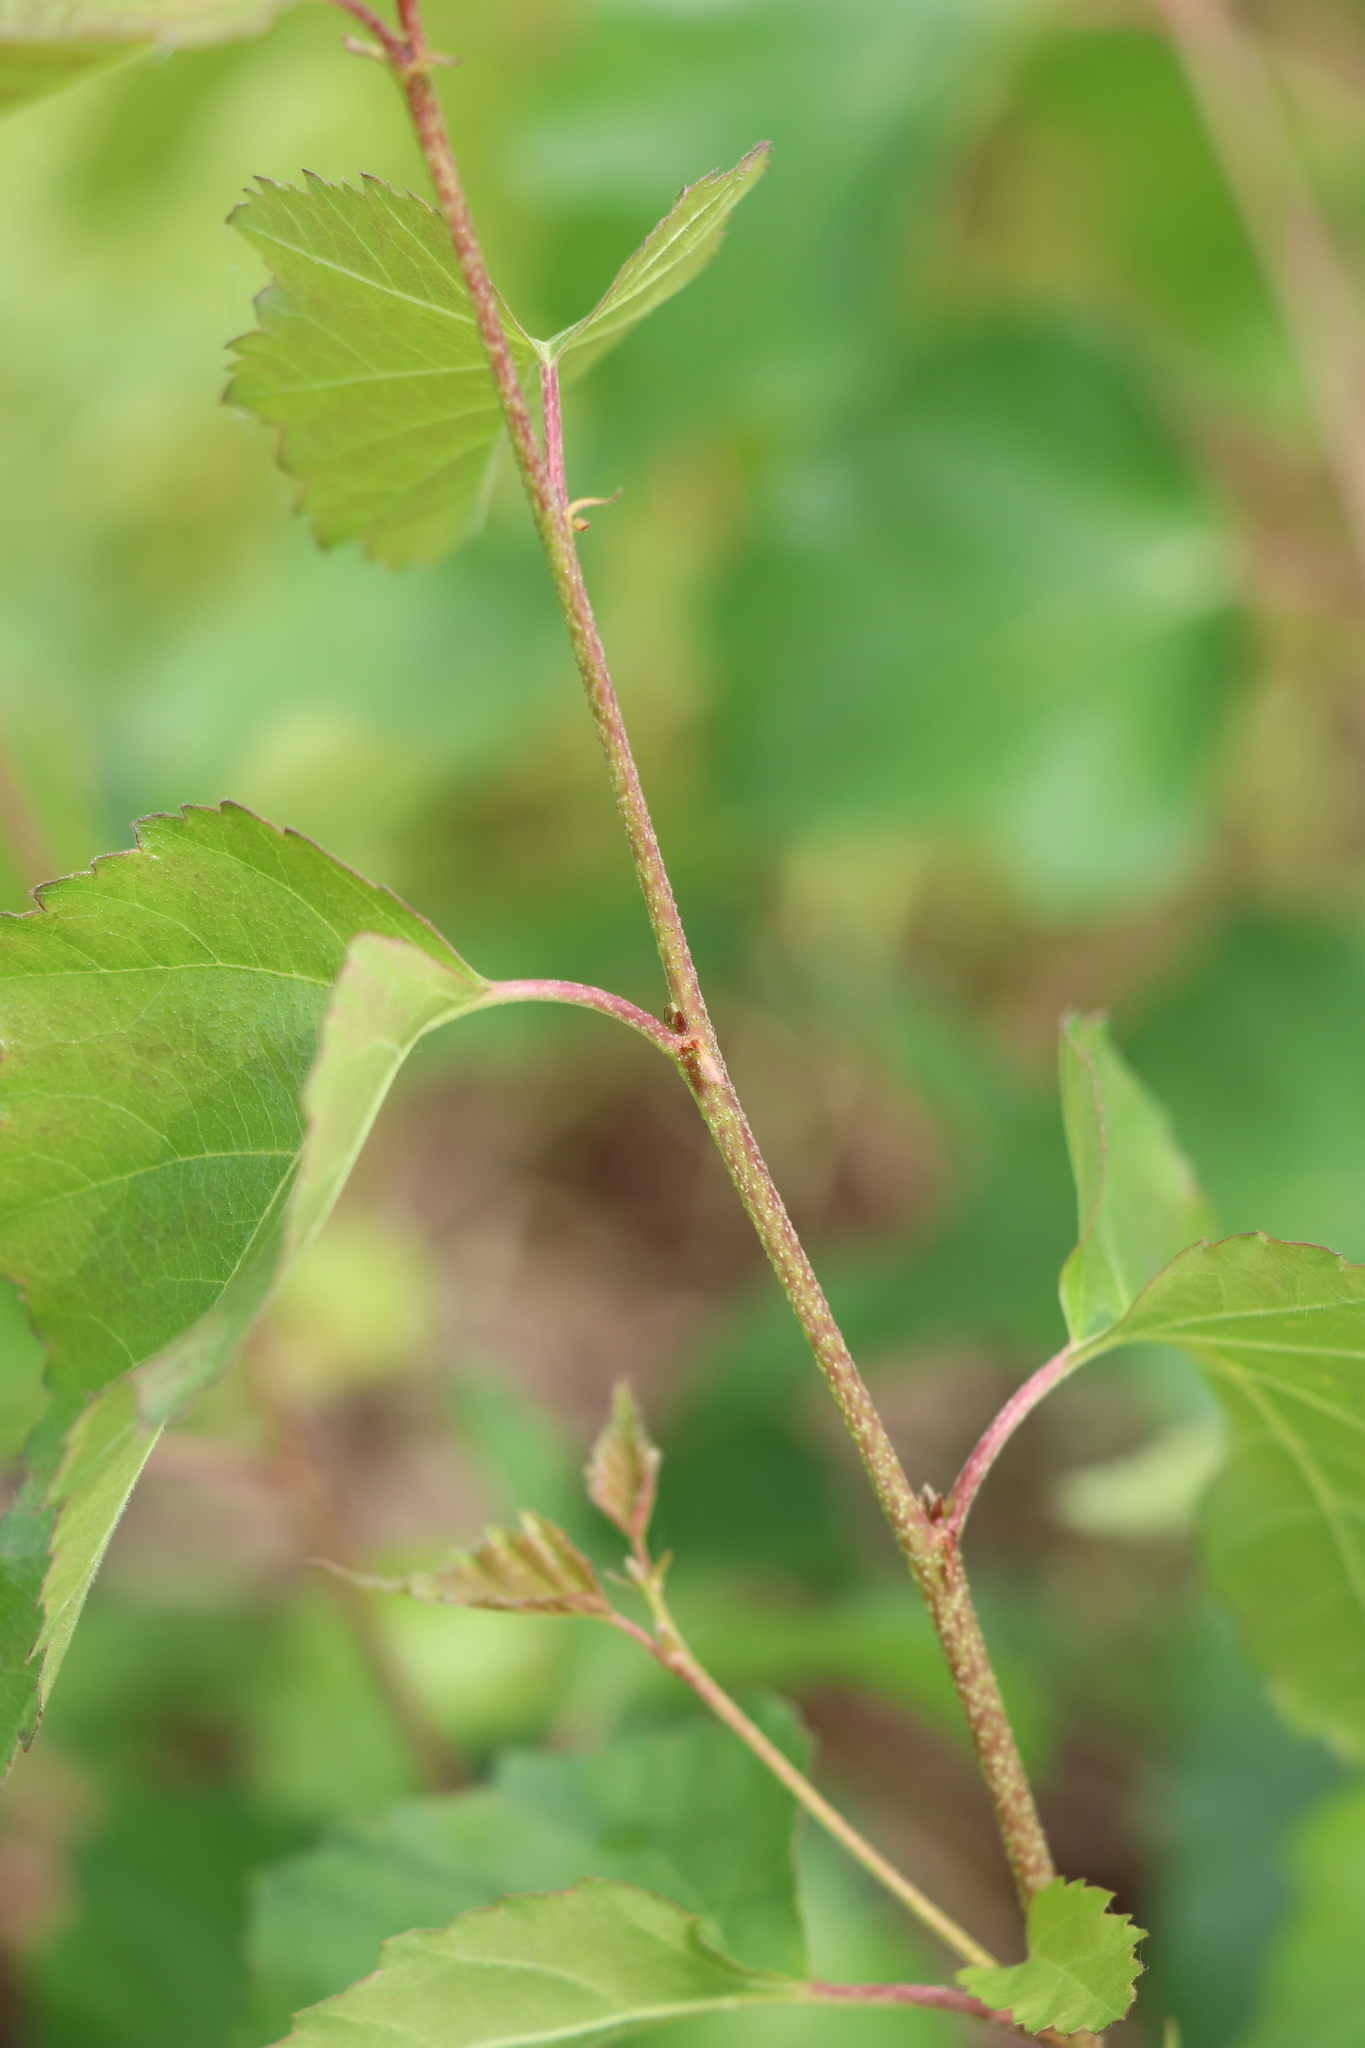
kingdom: Plantae
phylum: Tracheophyta
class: Magnoliopsida
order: Fagales
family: Betulaceae
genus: Betula
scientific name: Betula pendula
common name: Silver birch
